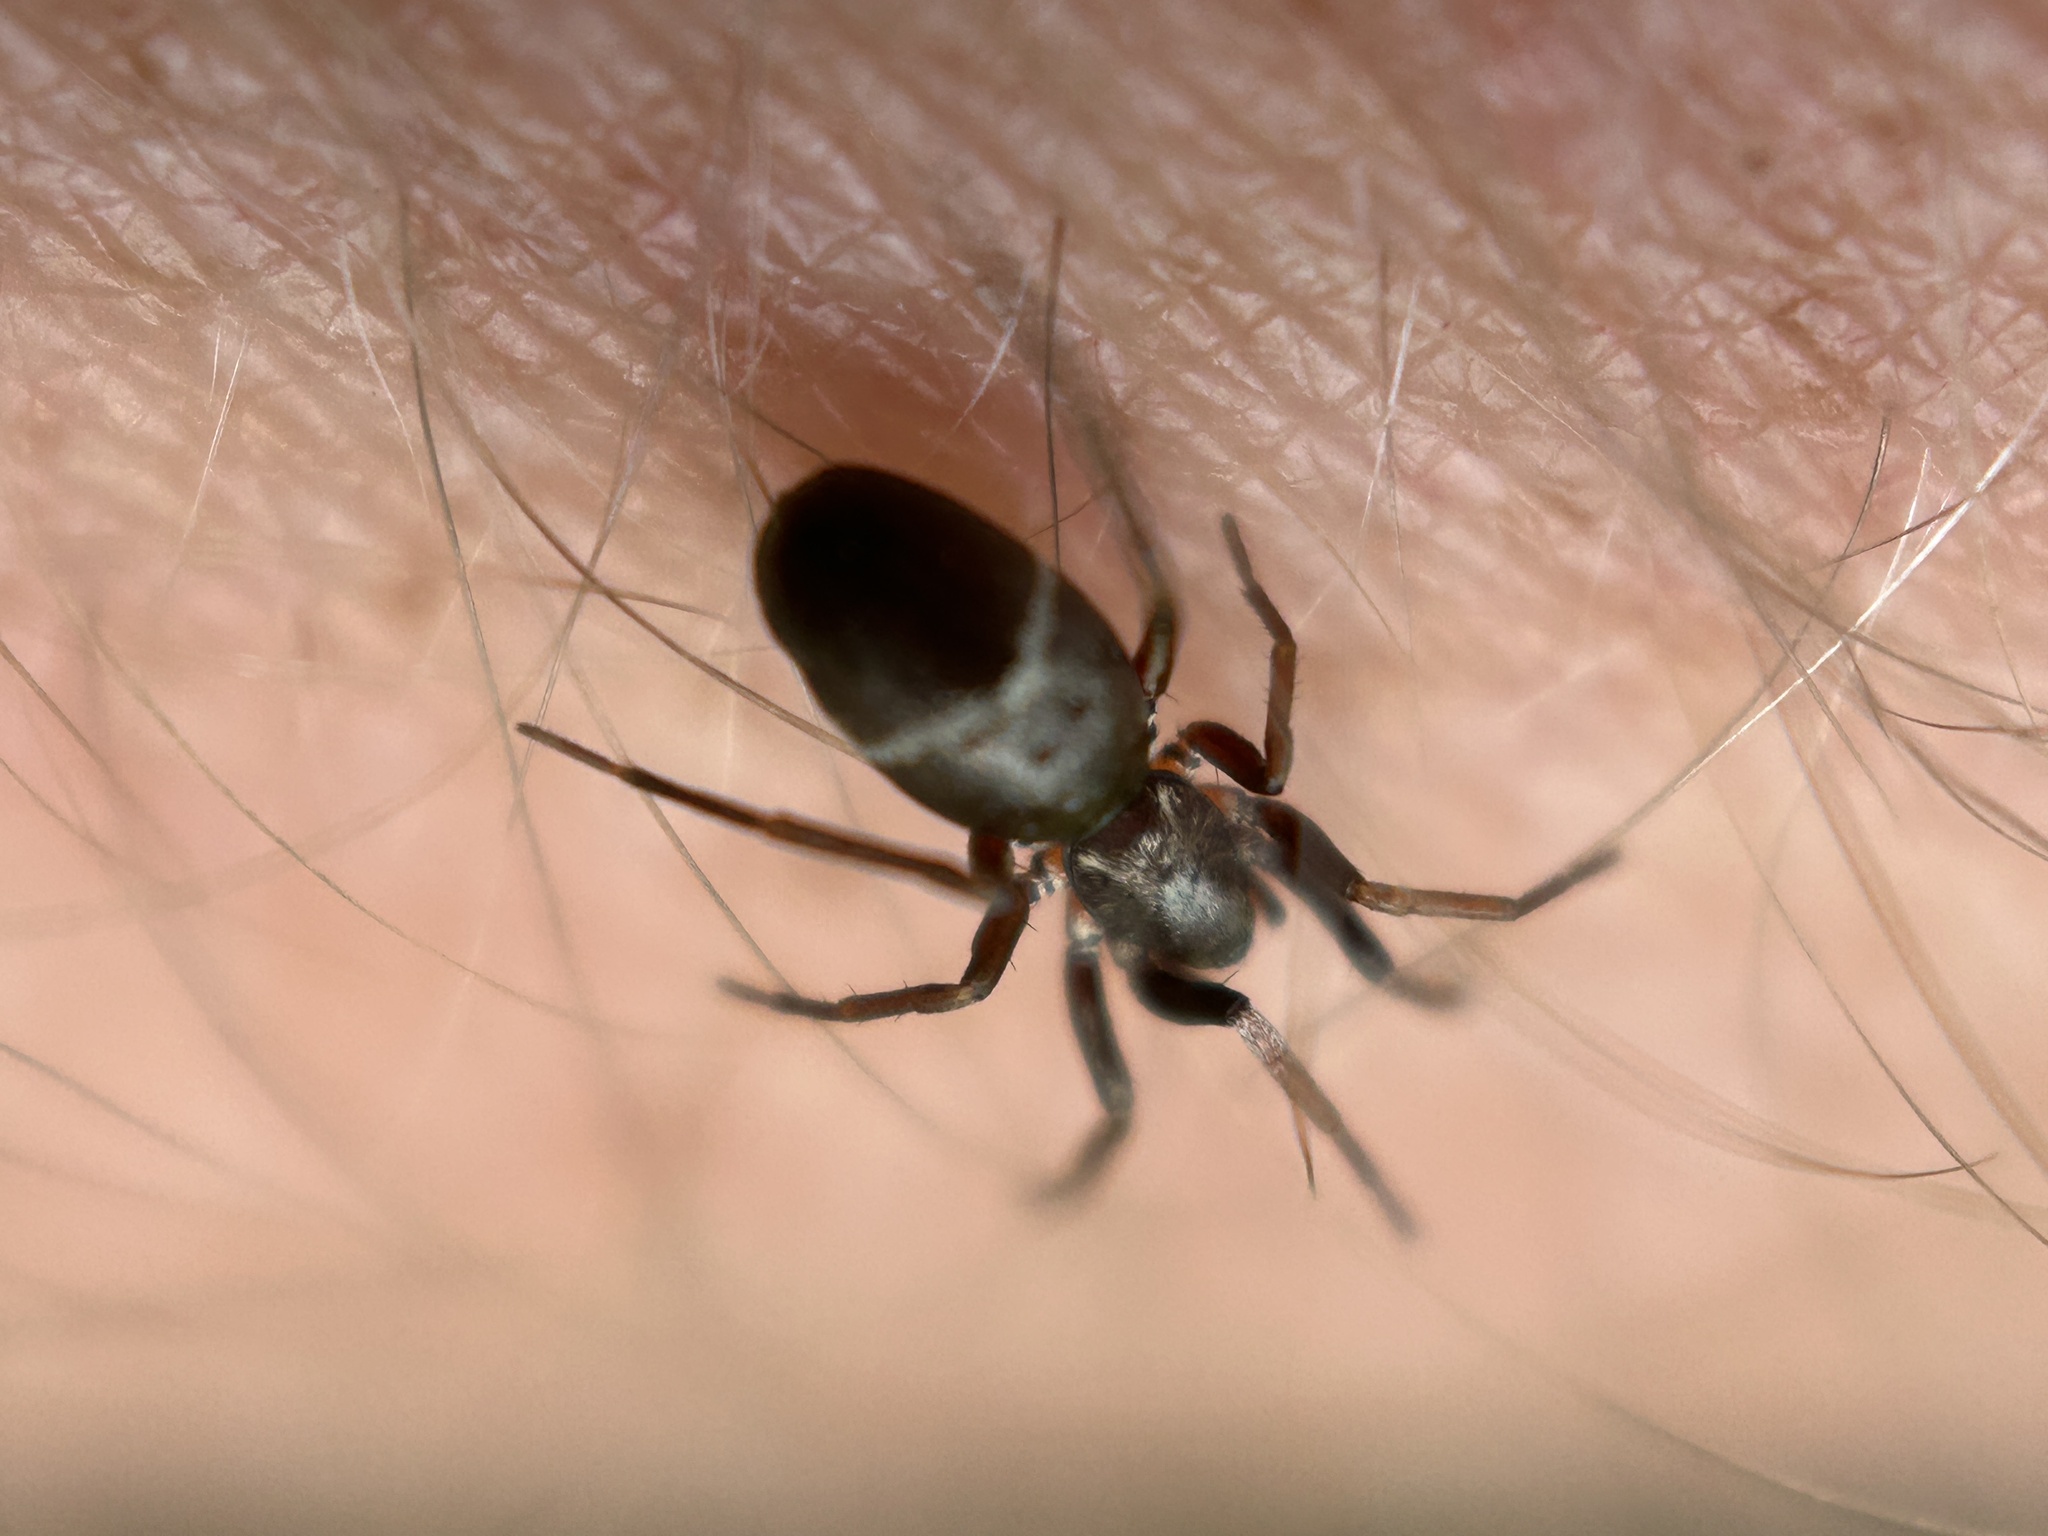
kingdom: Animalia
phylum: Arthropoda
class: Arachnida
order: Araneae
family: Gnaphosidae
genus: Micaria
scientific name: Micaria pulicaria
